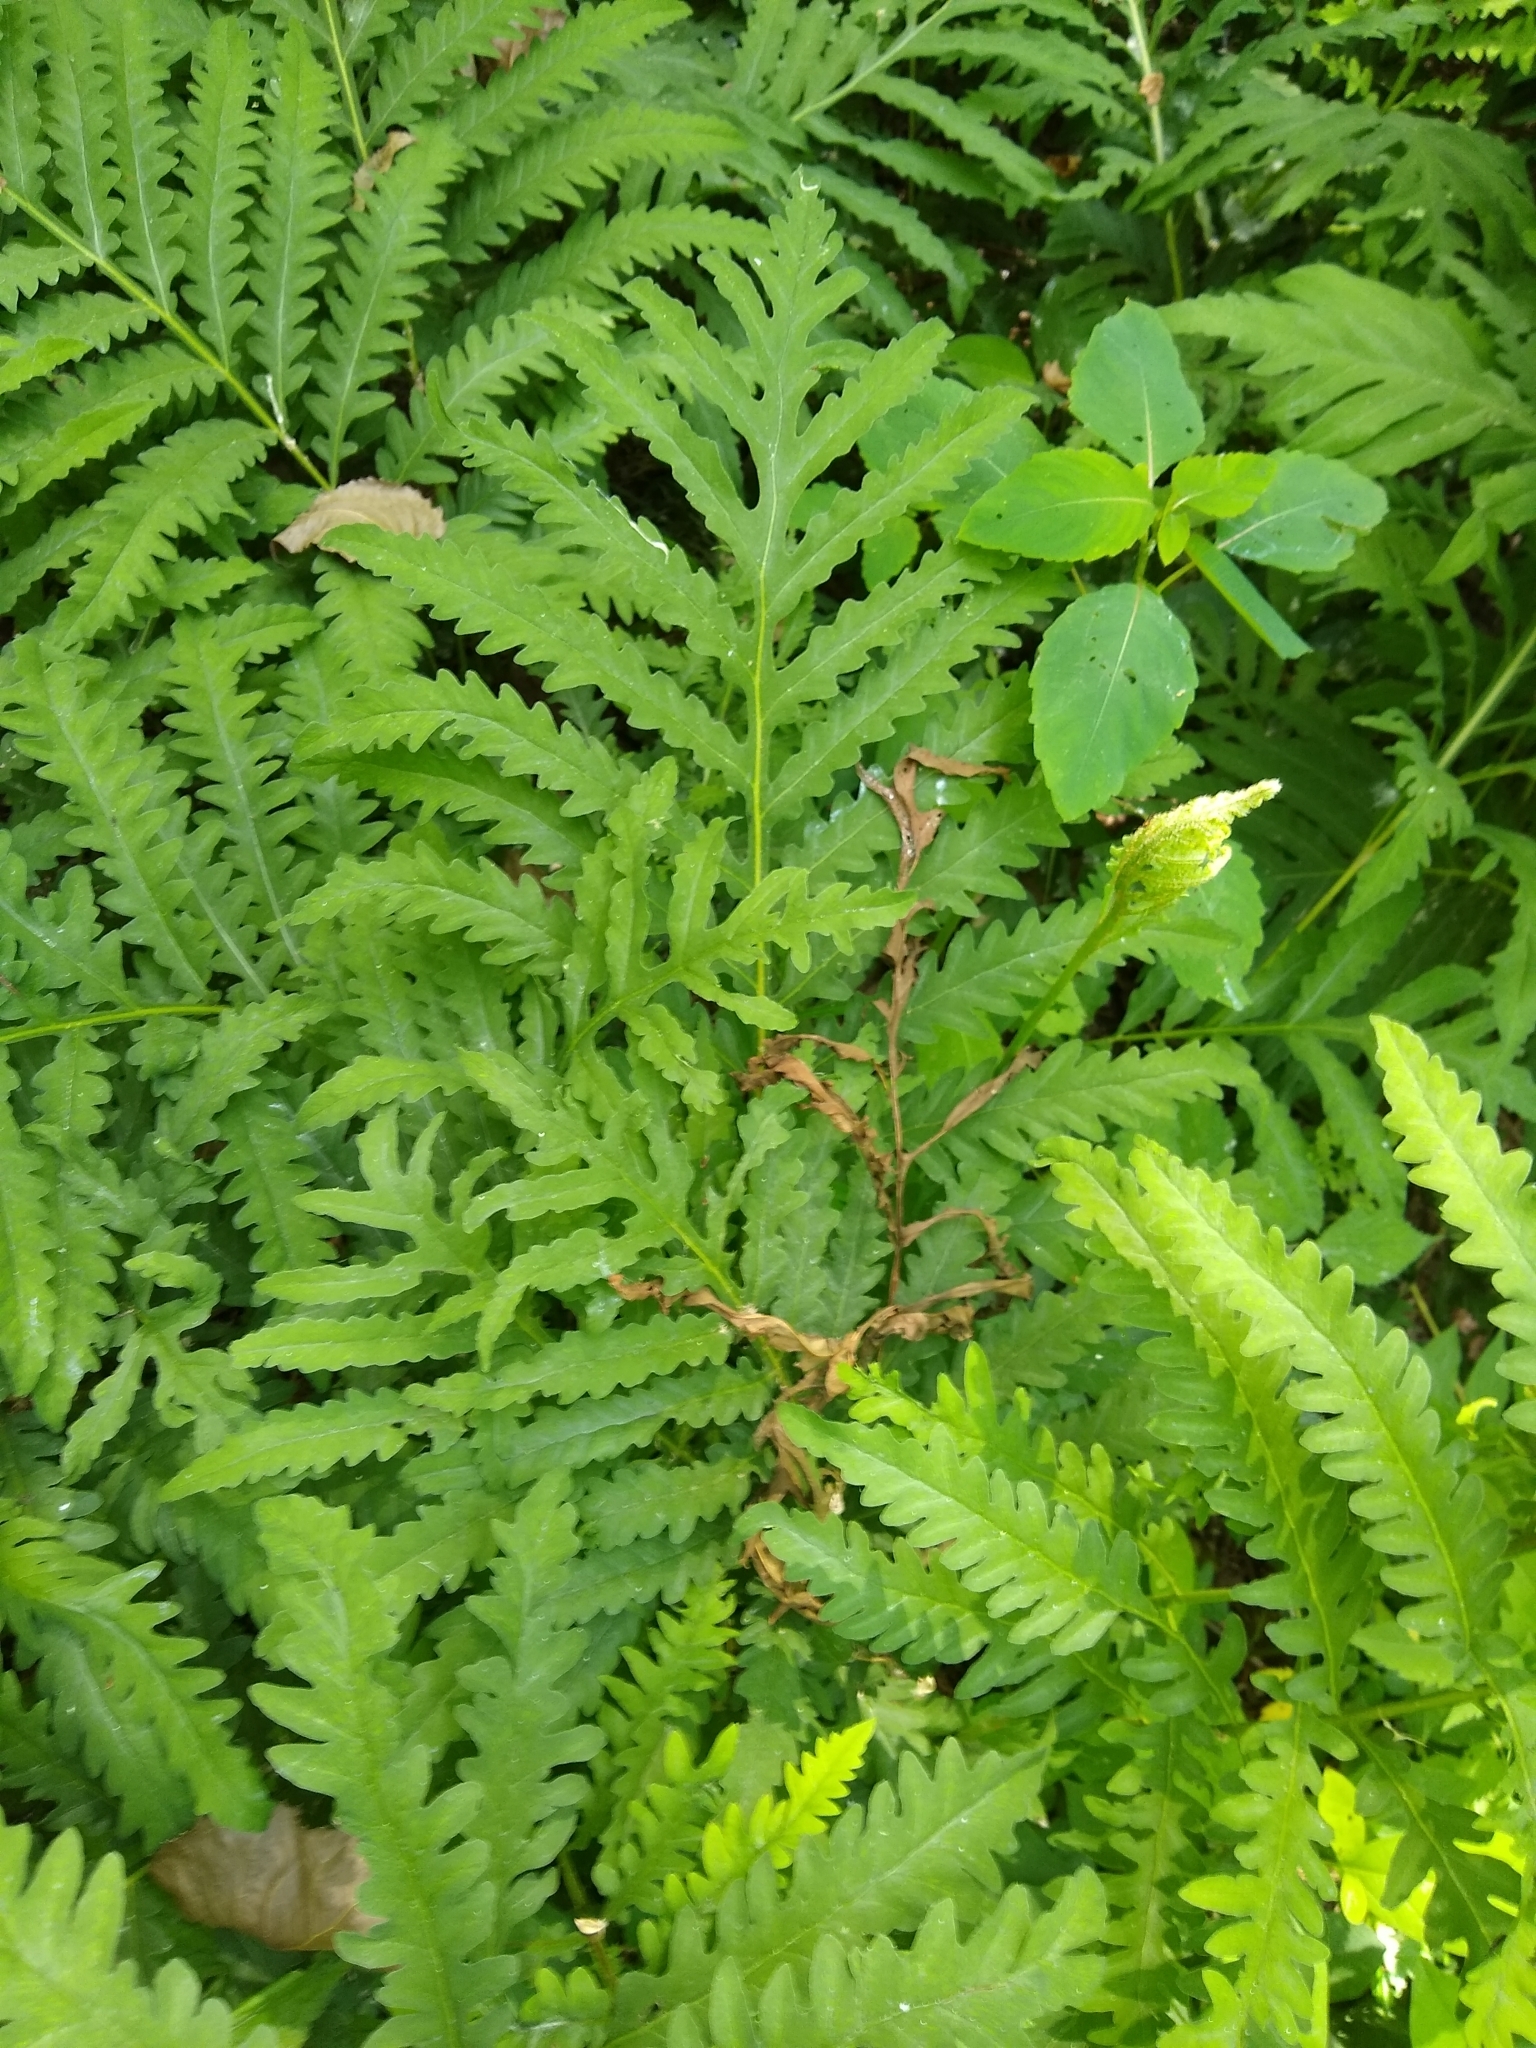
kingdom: Plantae
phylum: Tracheophyta
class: Polypodiopsida
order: Polypodiales
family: Onocleaceae
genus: Onoclea
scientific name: Onoclea sensibilis
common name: Sensitive fern
